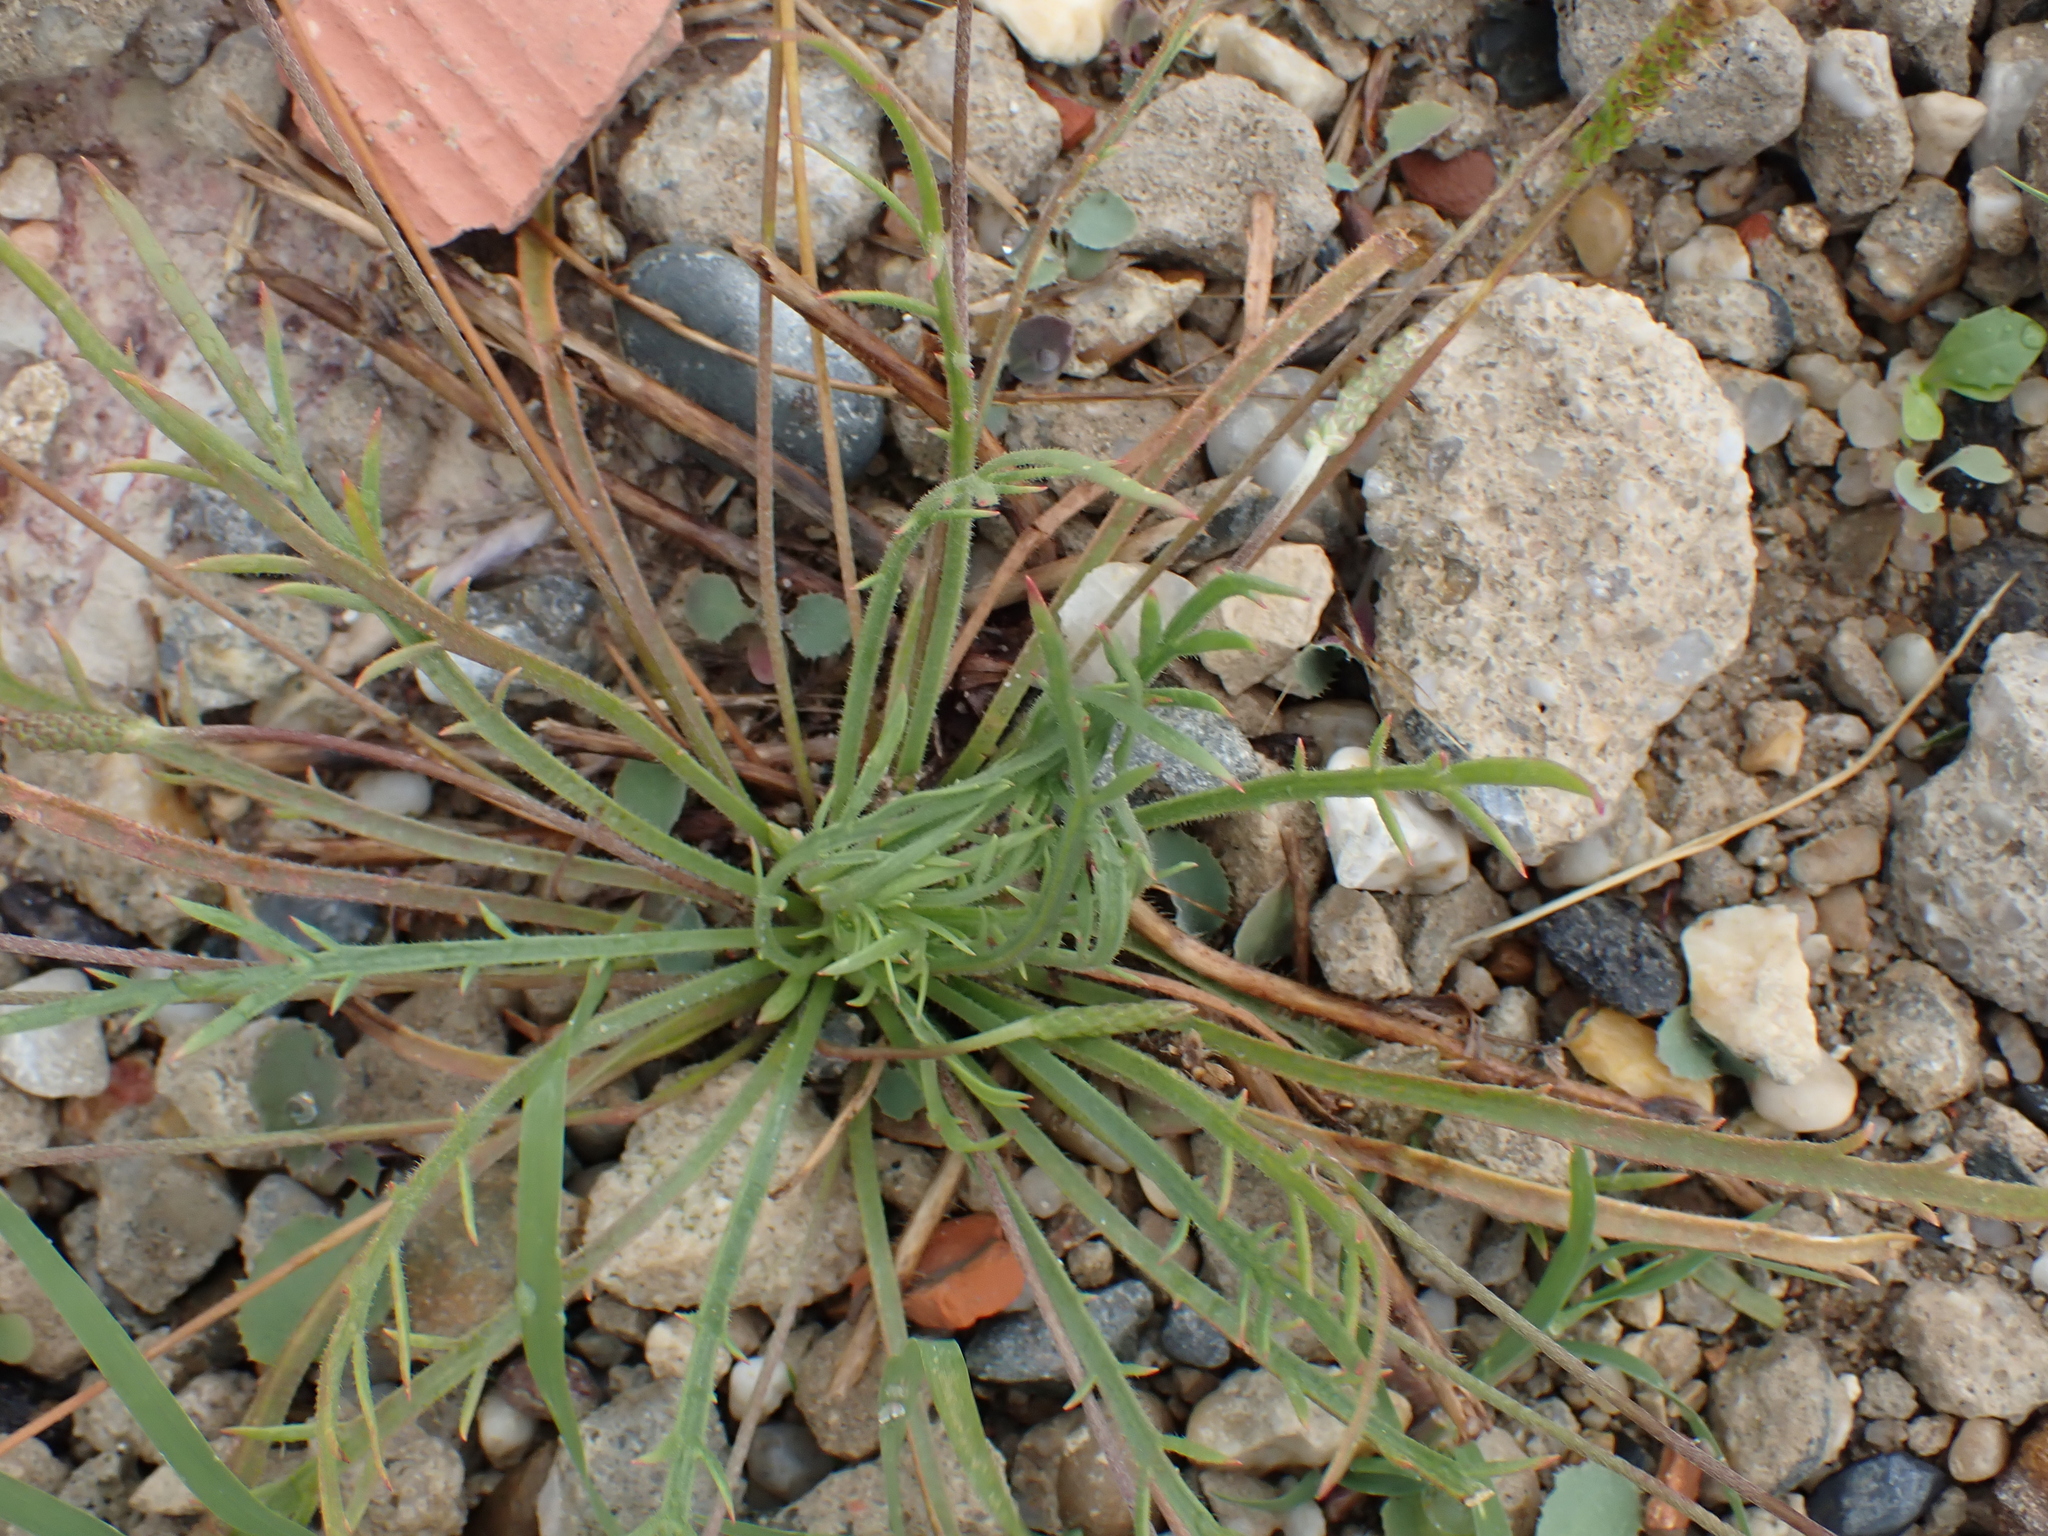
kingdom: Plantae
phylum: Tracheophyta
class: Magnoliopsida
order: Lamiales
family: Plantaginaceae
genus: Plantago
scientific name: Plantago coronopus
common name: Buck's-horn plantain
